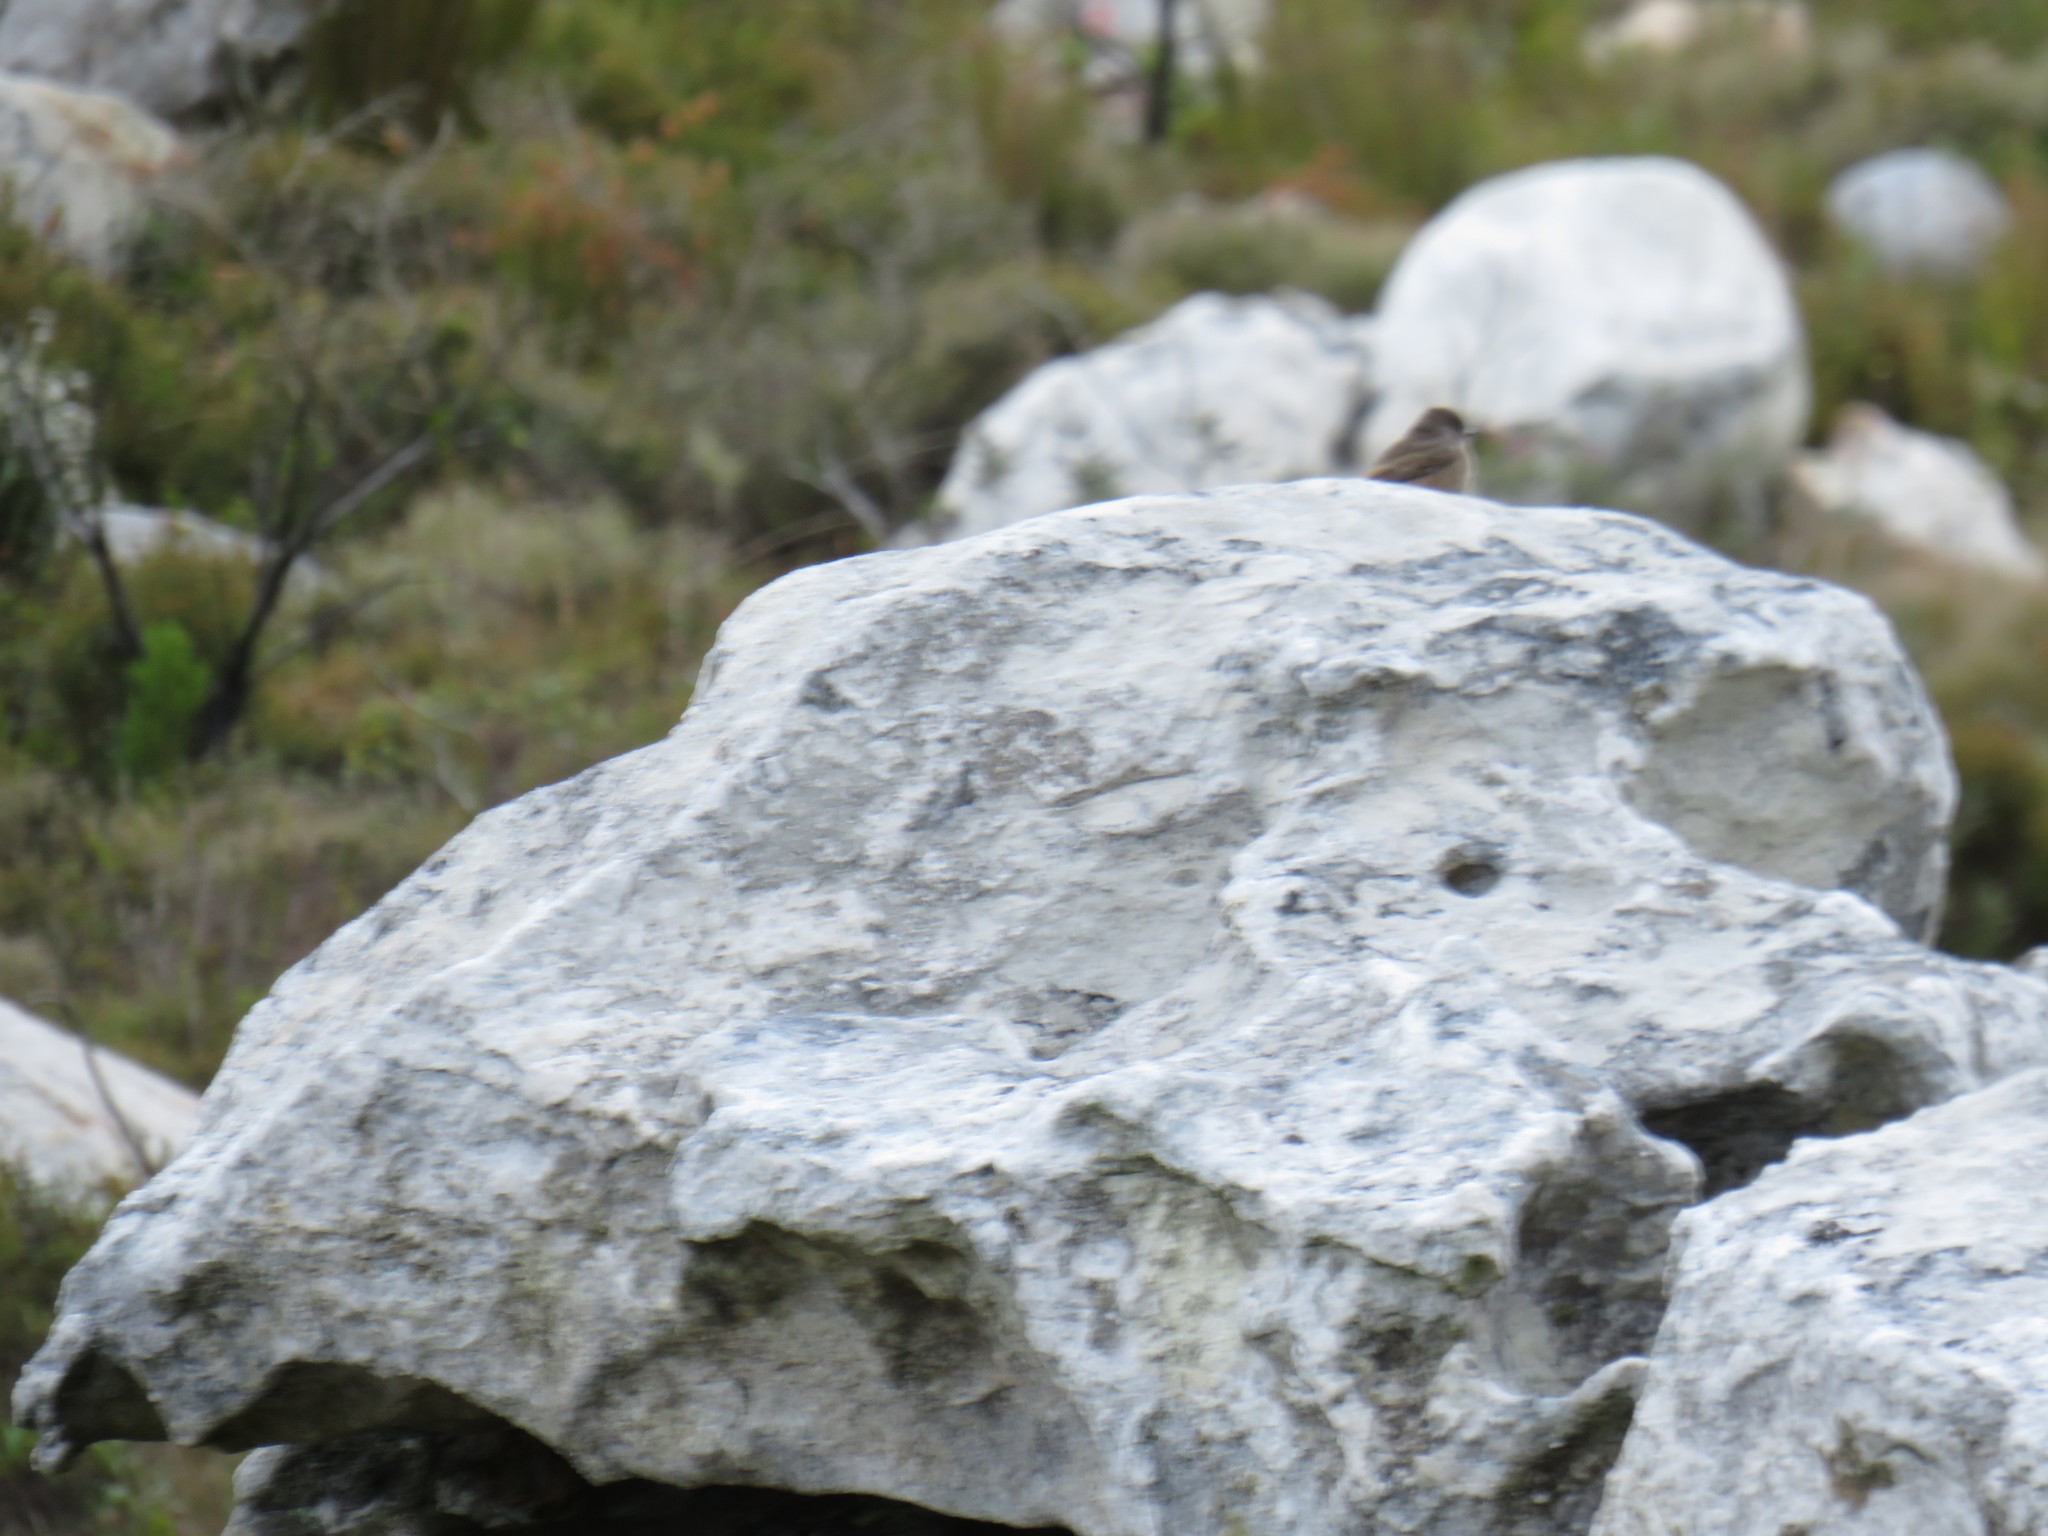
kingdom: Animalia
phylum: Chordata
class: Aves
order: Passeriformes
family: Muscicapidae
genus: Oenanthe
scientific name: Oenanthe familiaris
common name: Familiar chat
